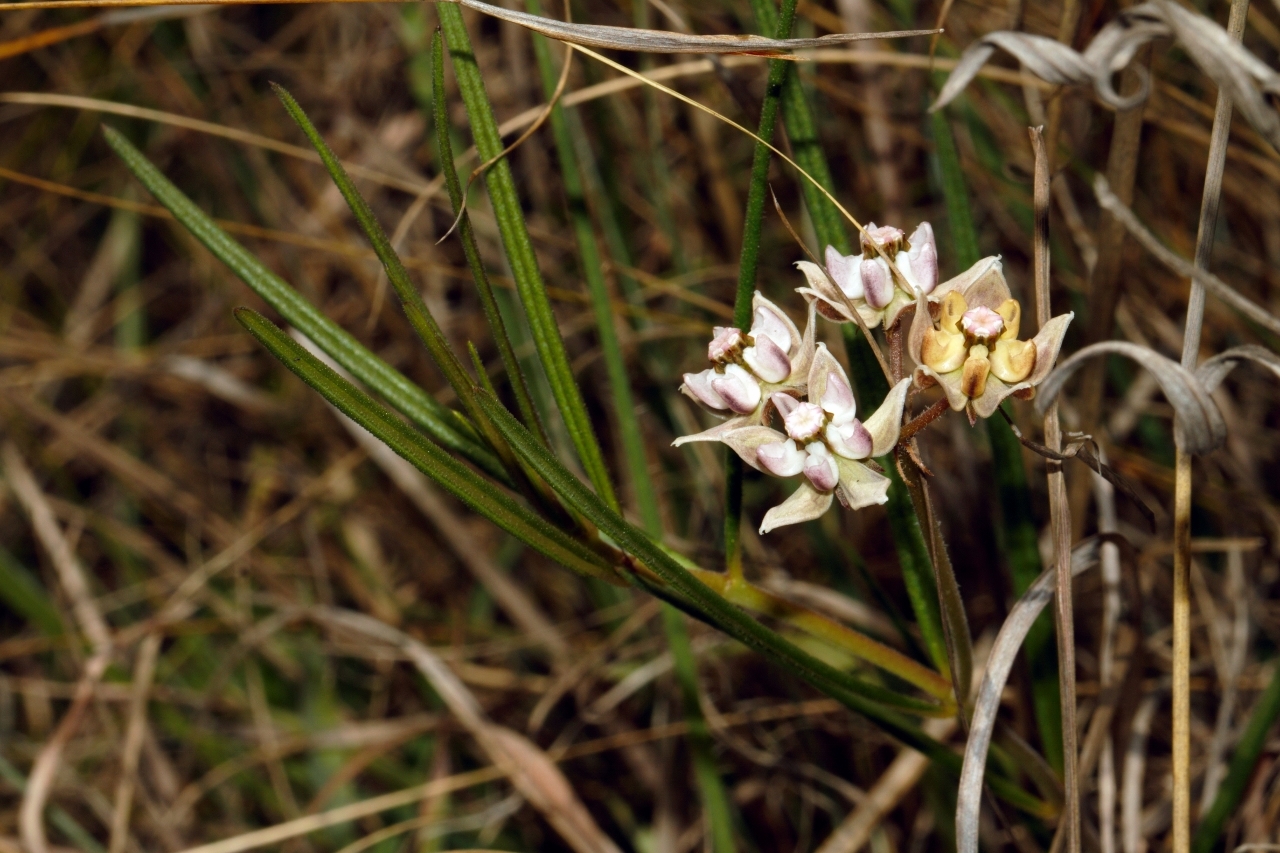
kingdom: Plantae
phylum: Tracheophyta
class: Magnoliopsida
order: Gentianales
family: Apocynaceae
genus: Asclepias
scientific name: Asclepias cucullata
